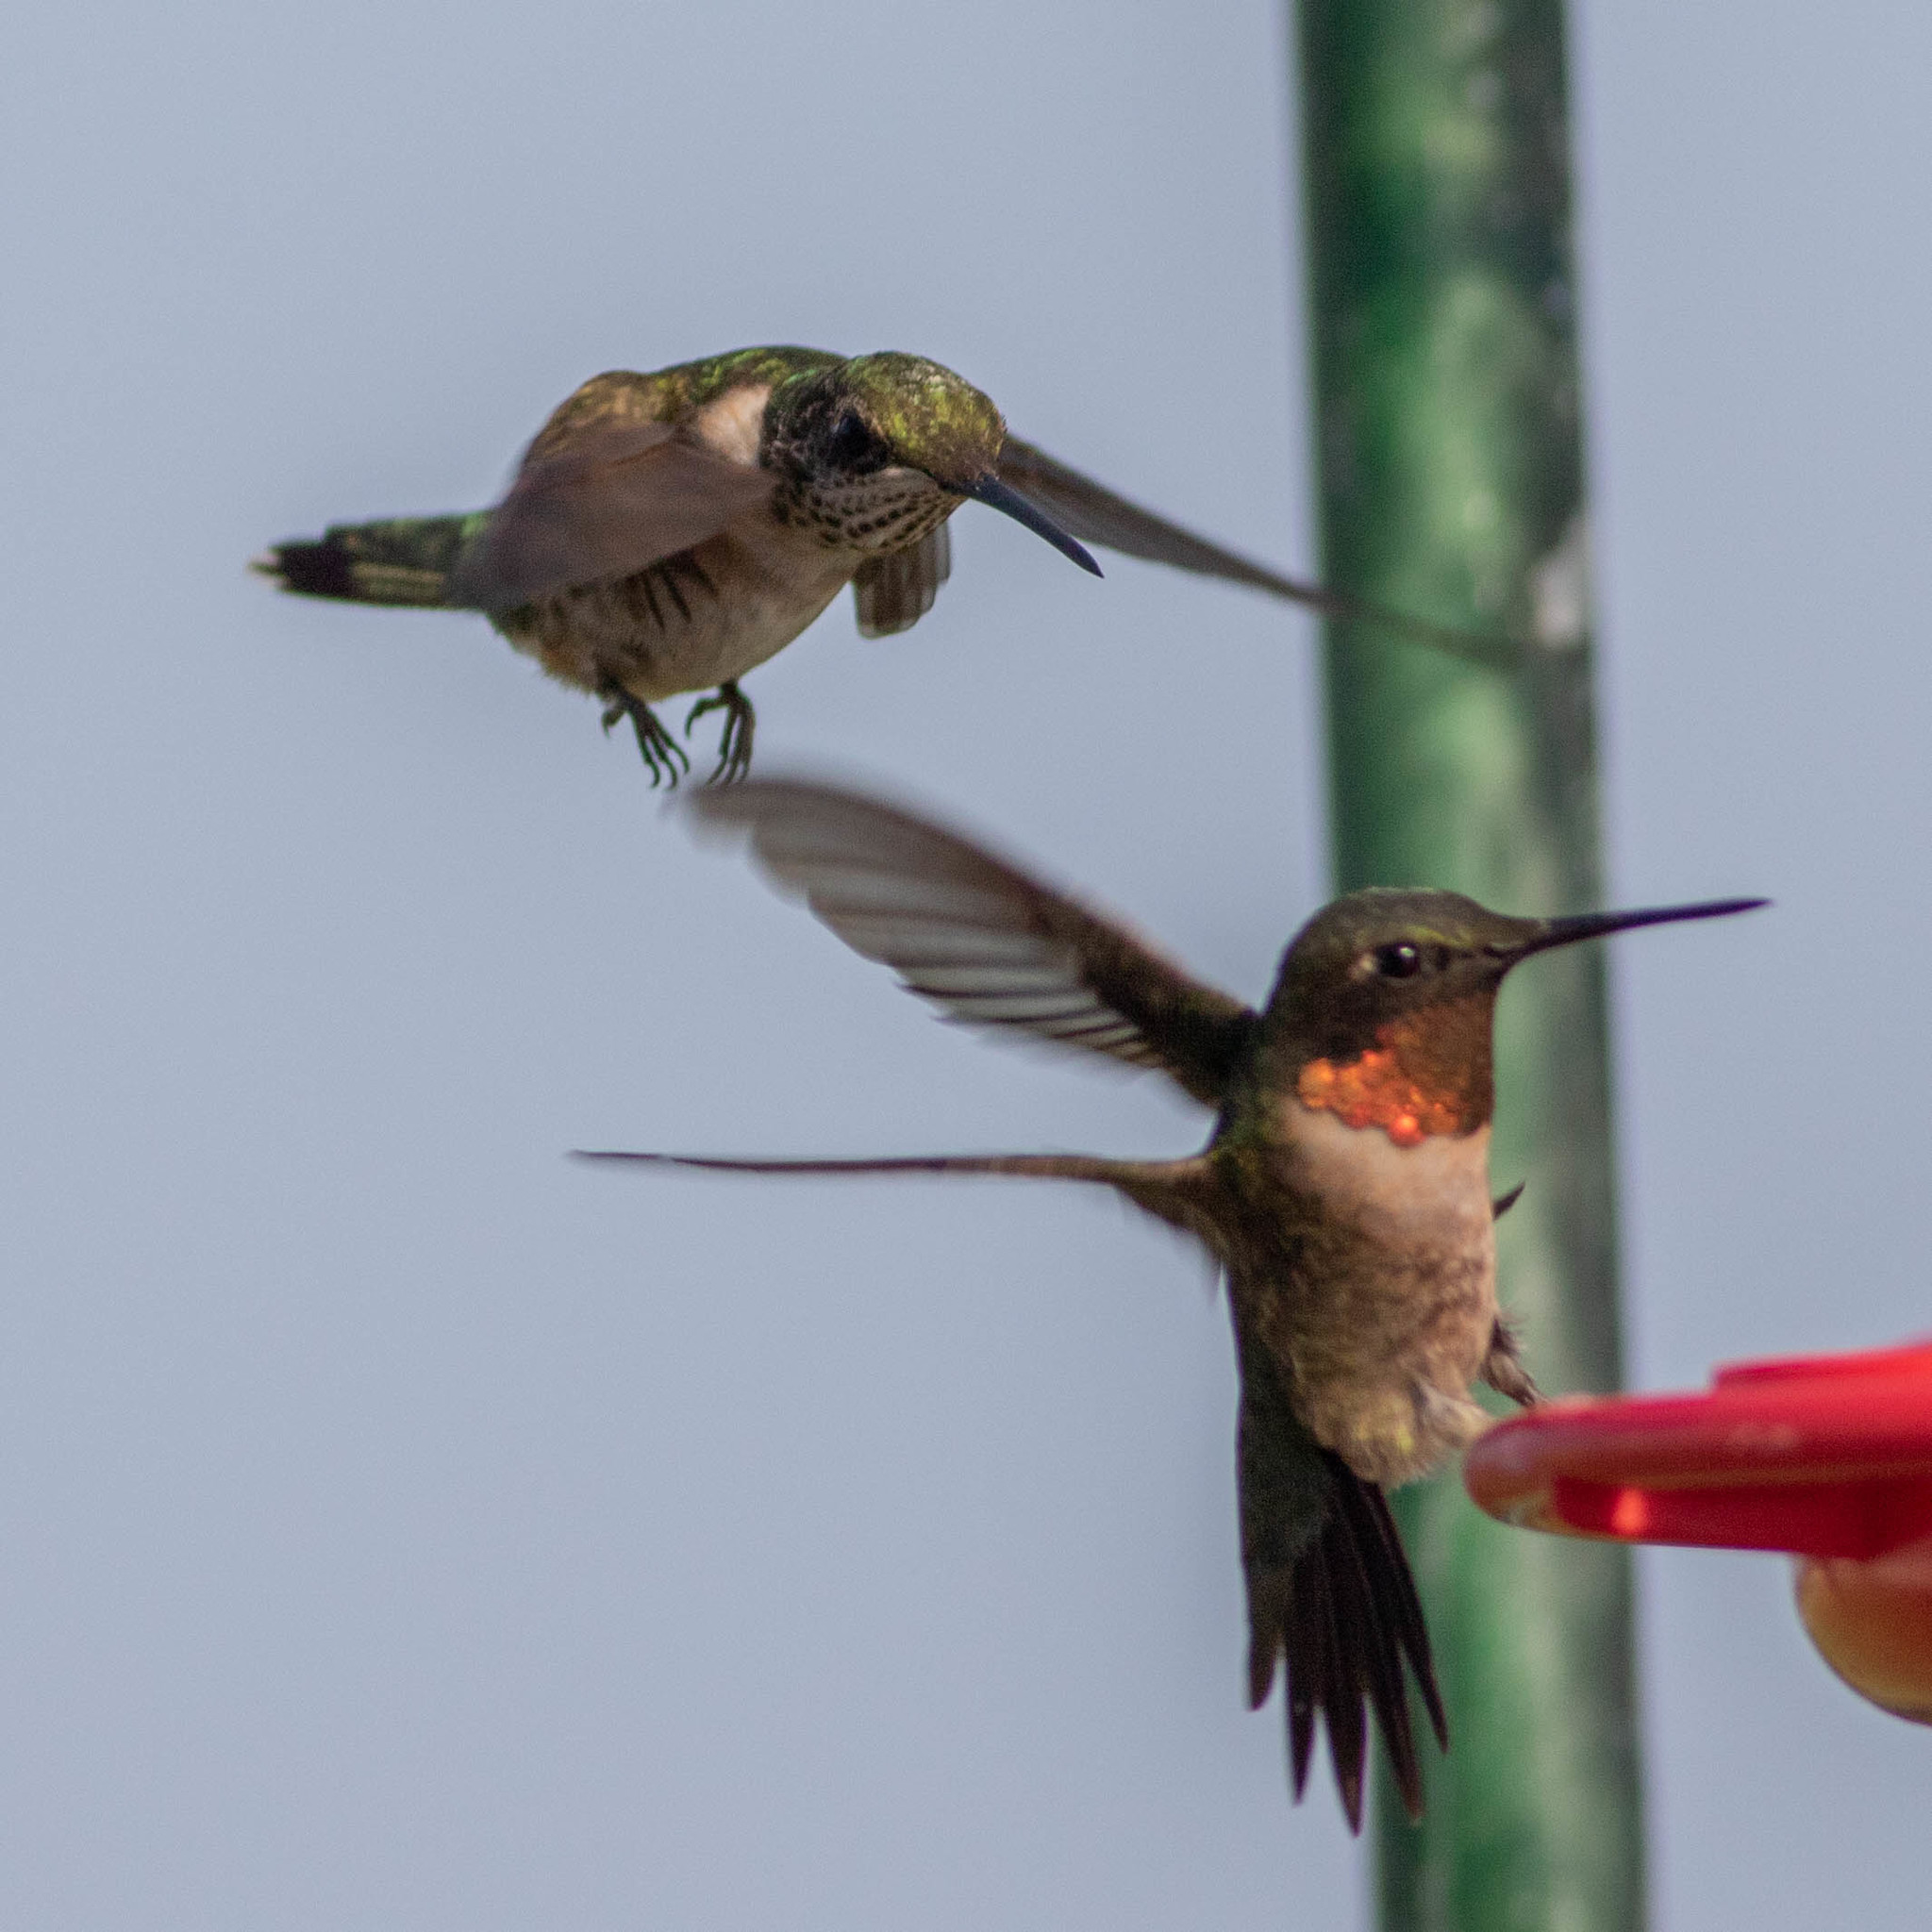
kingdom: Animalia
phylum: Chordata
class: Aves
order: Apodiformes
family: Trochilidae
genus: Archilochus
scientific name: Archilochus colubris
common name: Ruby-throated hummingbird
